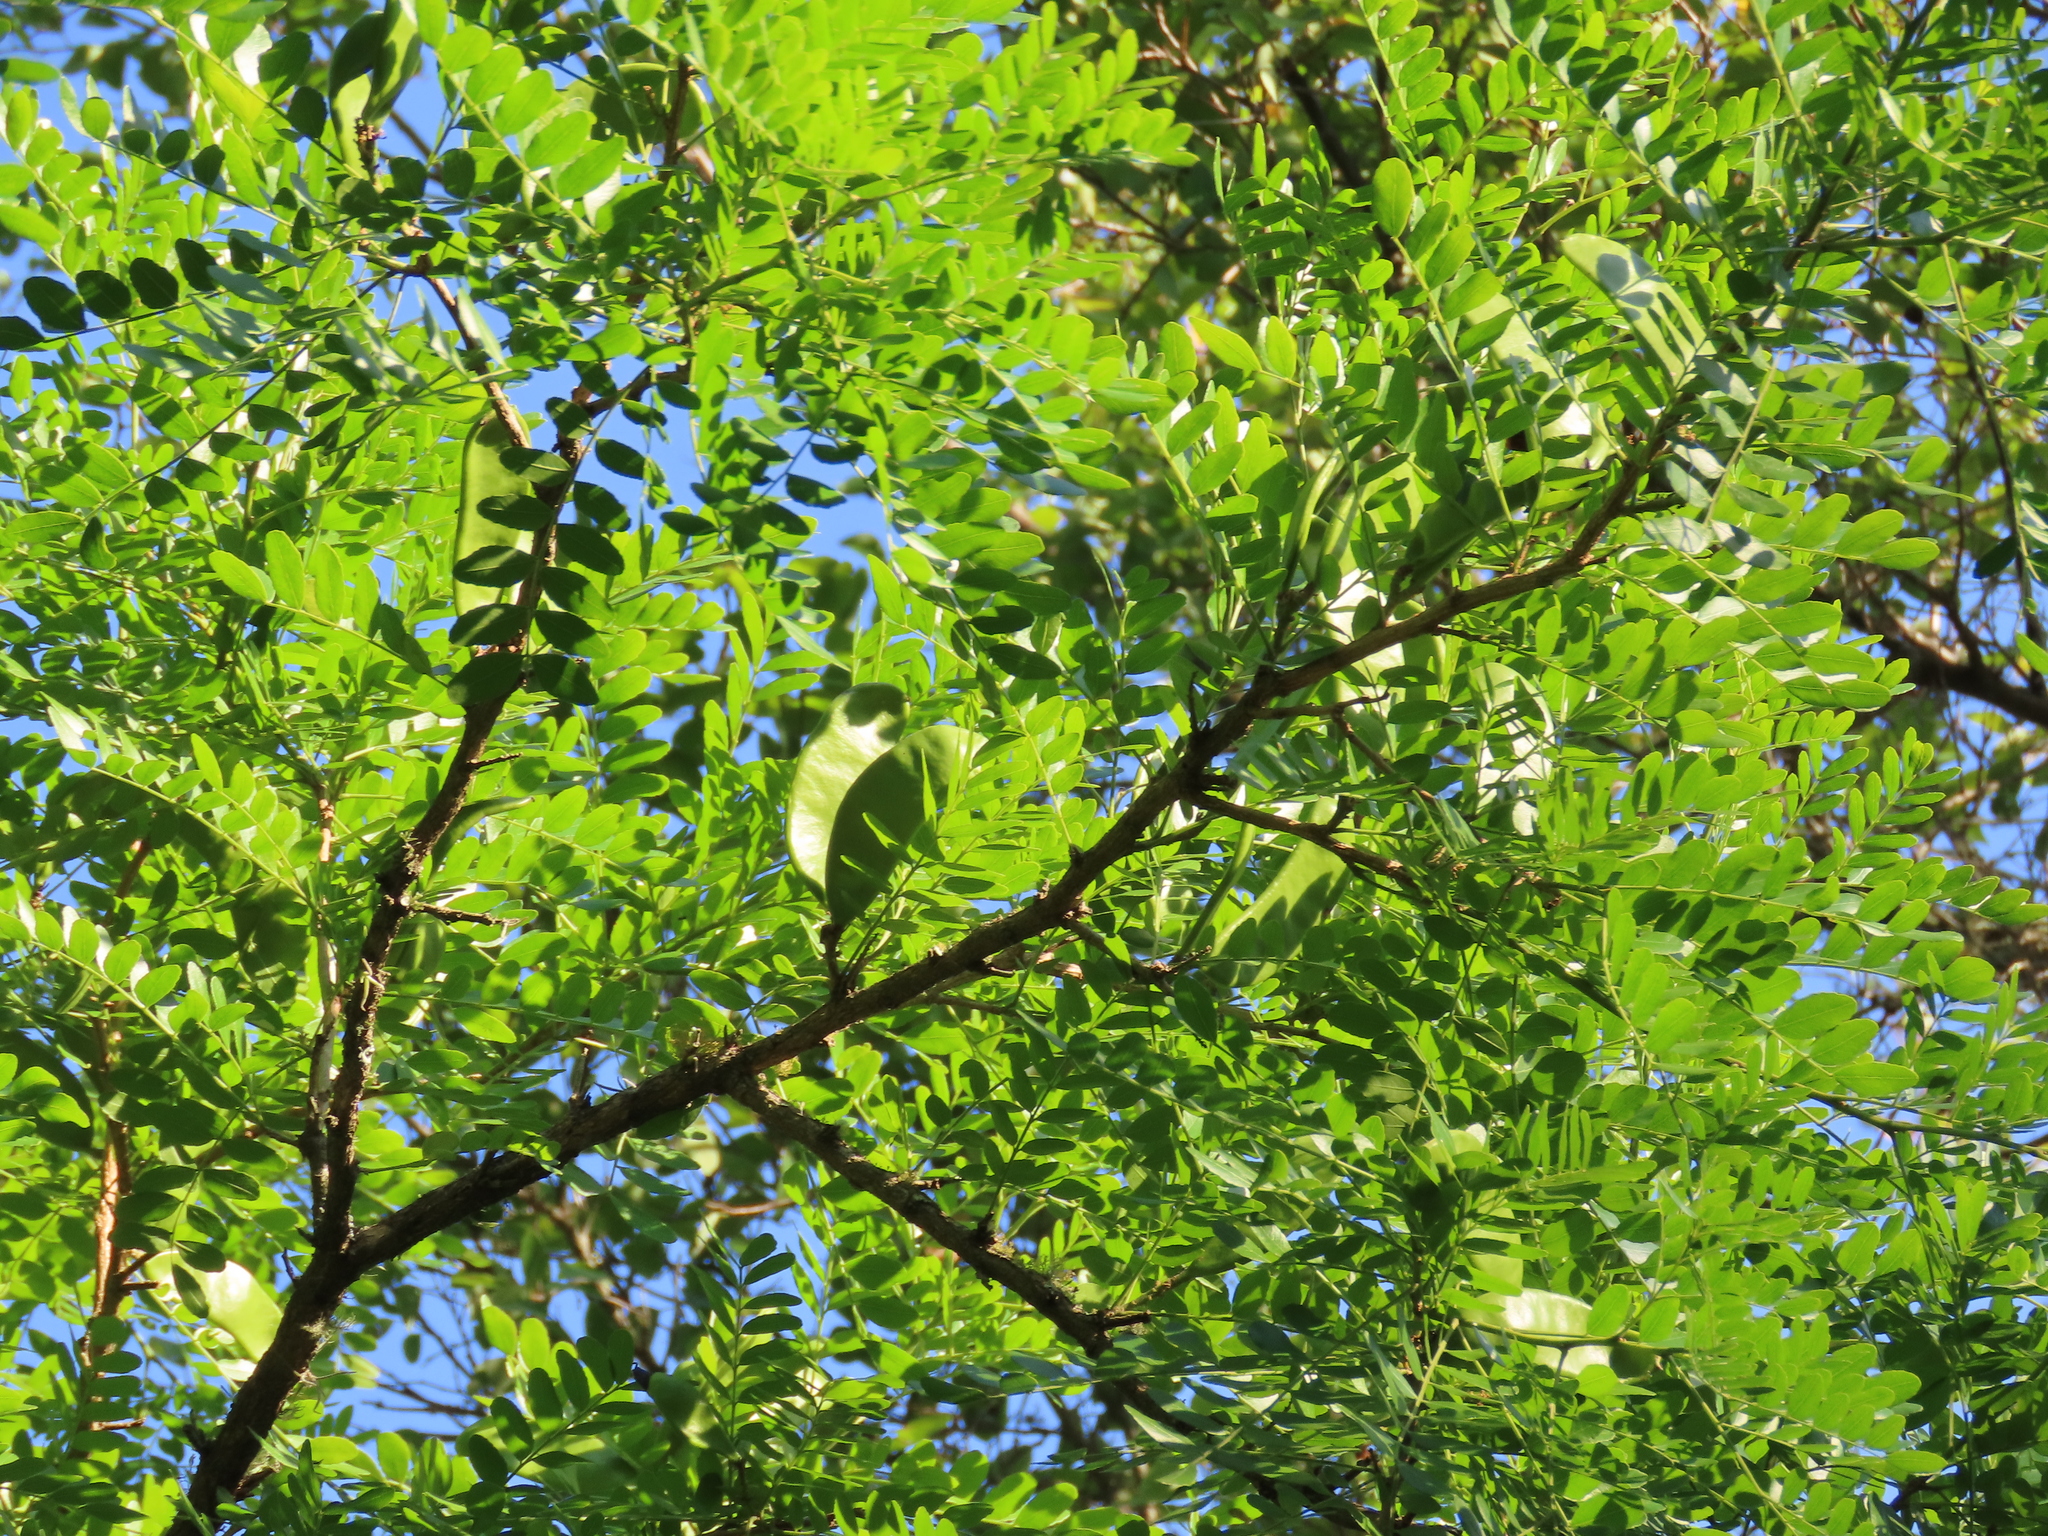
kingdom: Plantae
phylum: Tracheophyta
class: Magnoliopsida
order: Fabales
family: Fabaceae
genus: Gleditsia
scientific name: Gleditsia amorphoides
